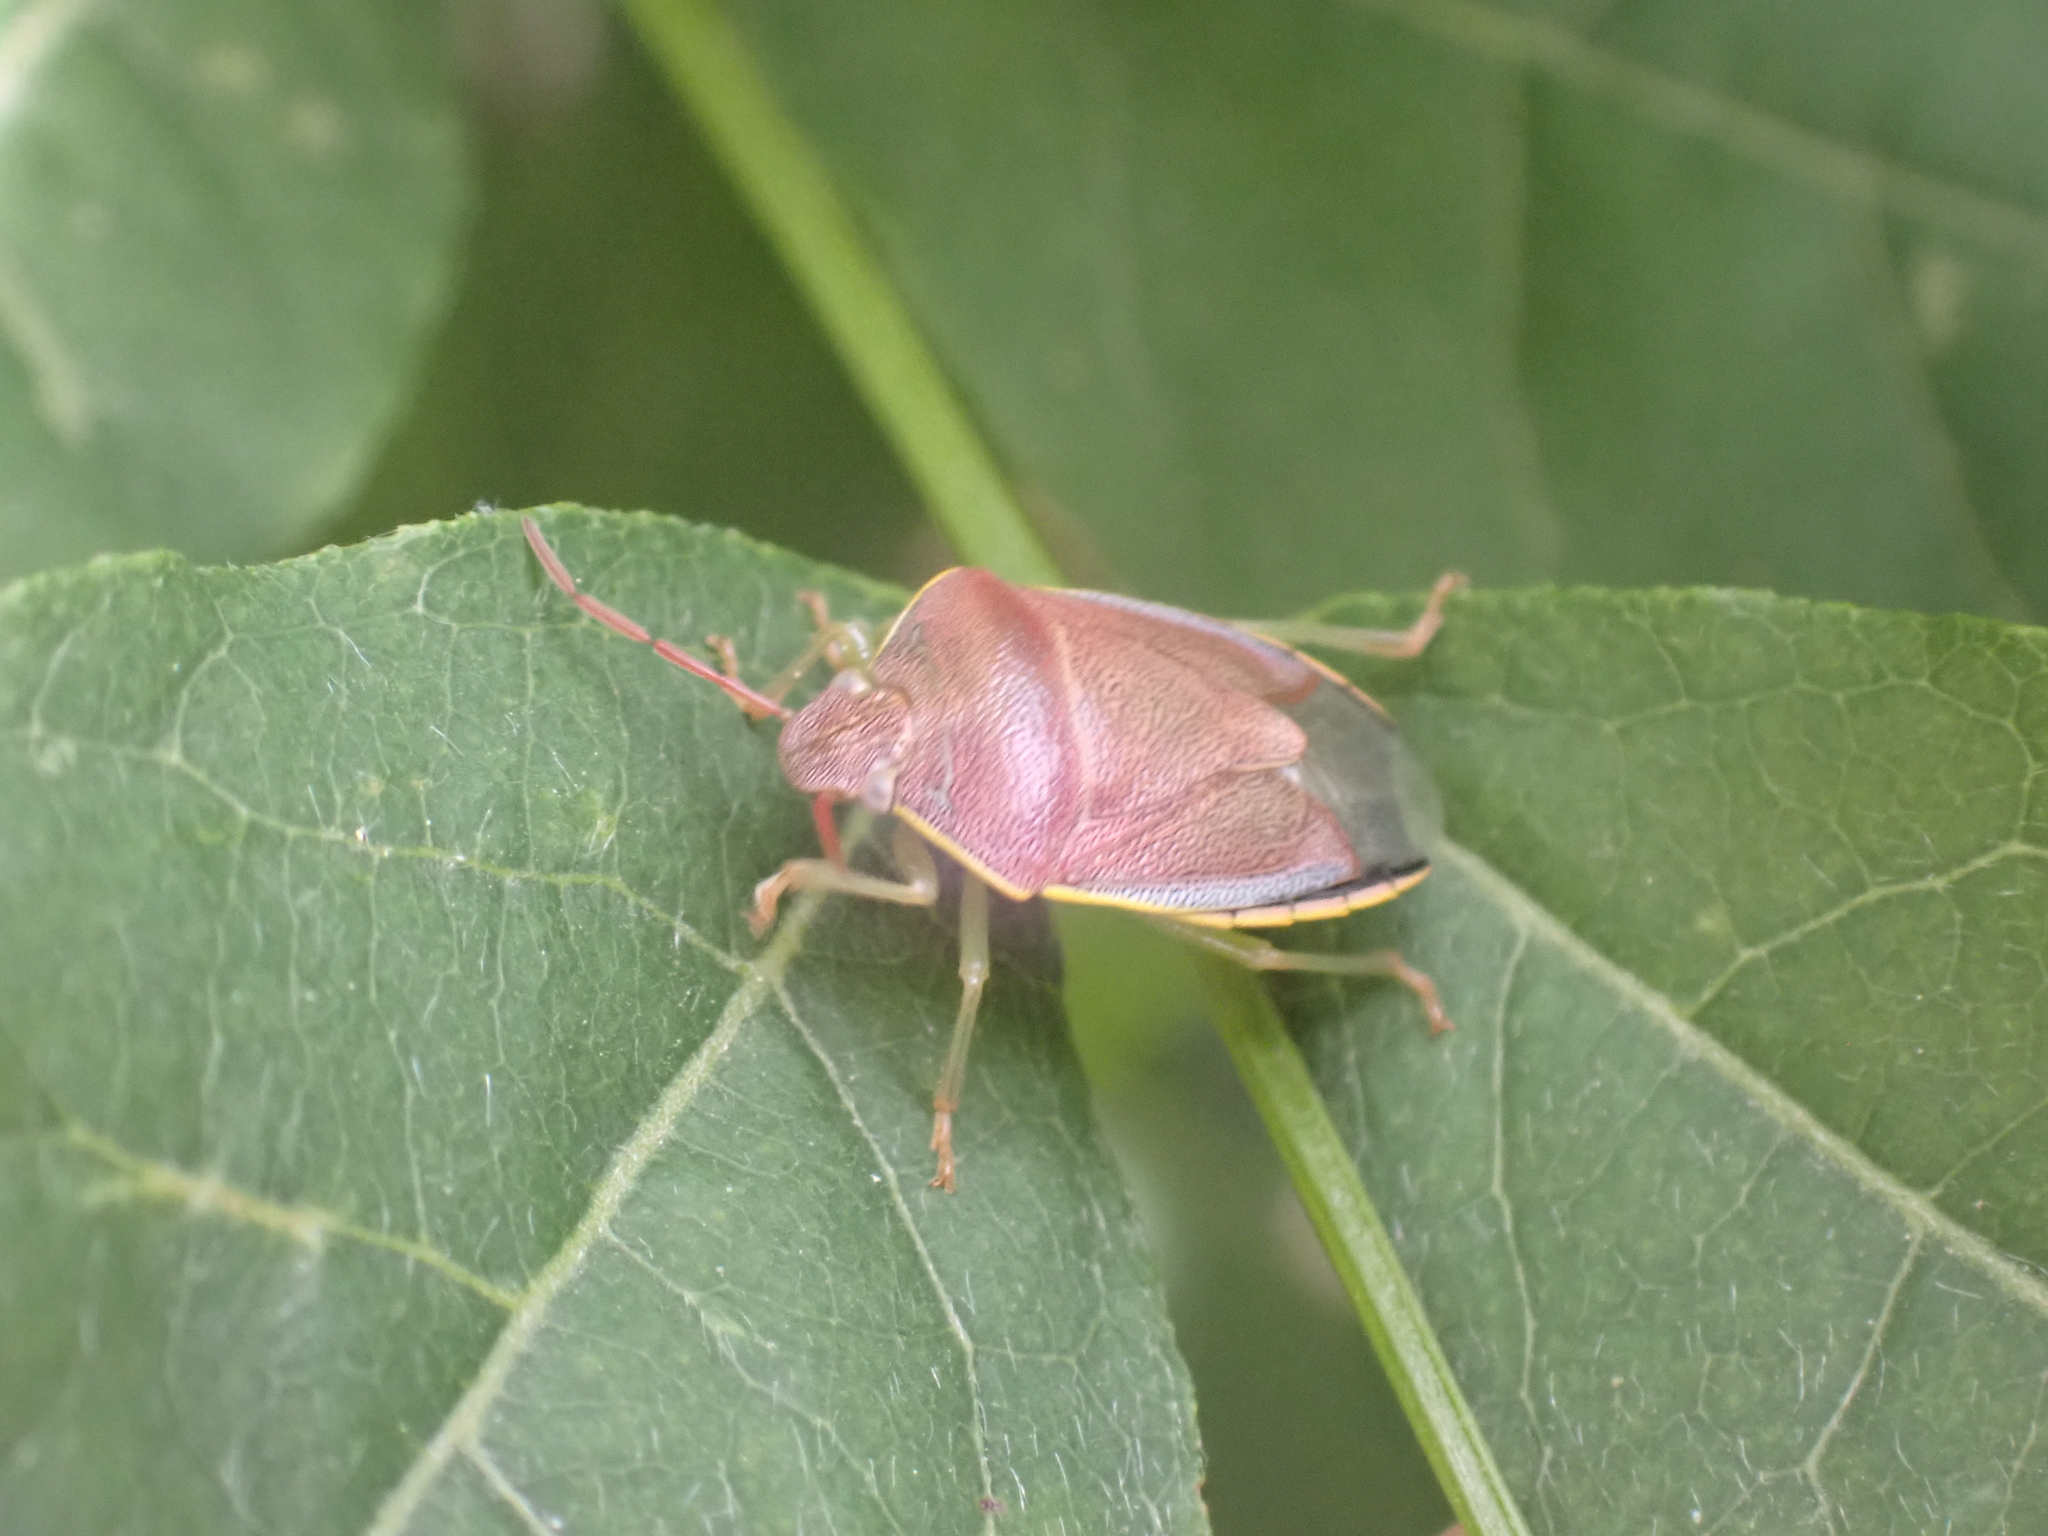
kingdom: Animalia
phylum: Arthropoda
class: Insecta
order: Hemiptera
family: Pentatomidae
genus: Piezodorus
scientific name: Piezodorus lituratus
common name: Stink bug
